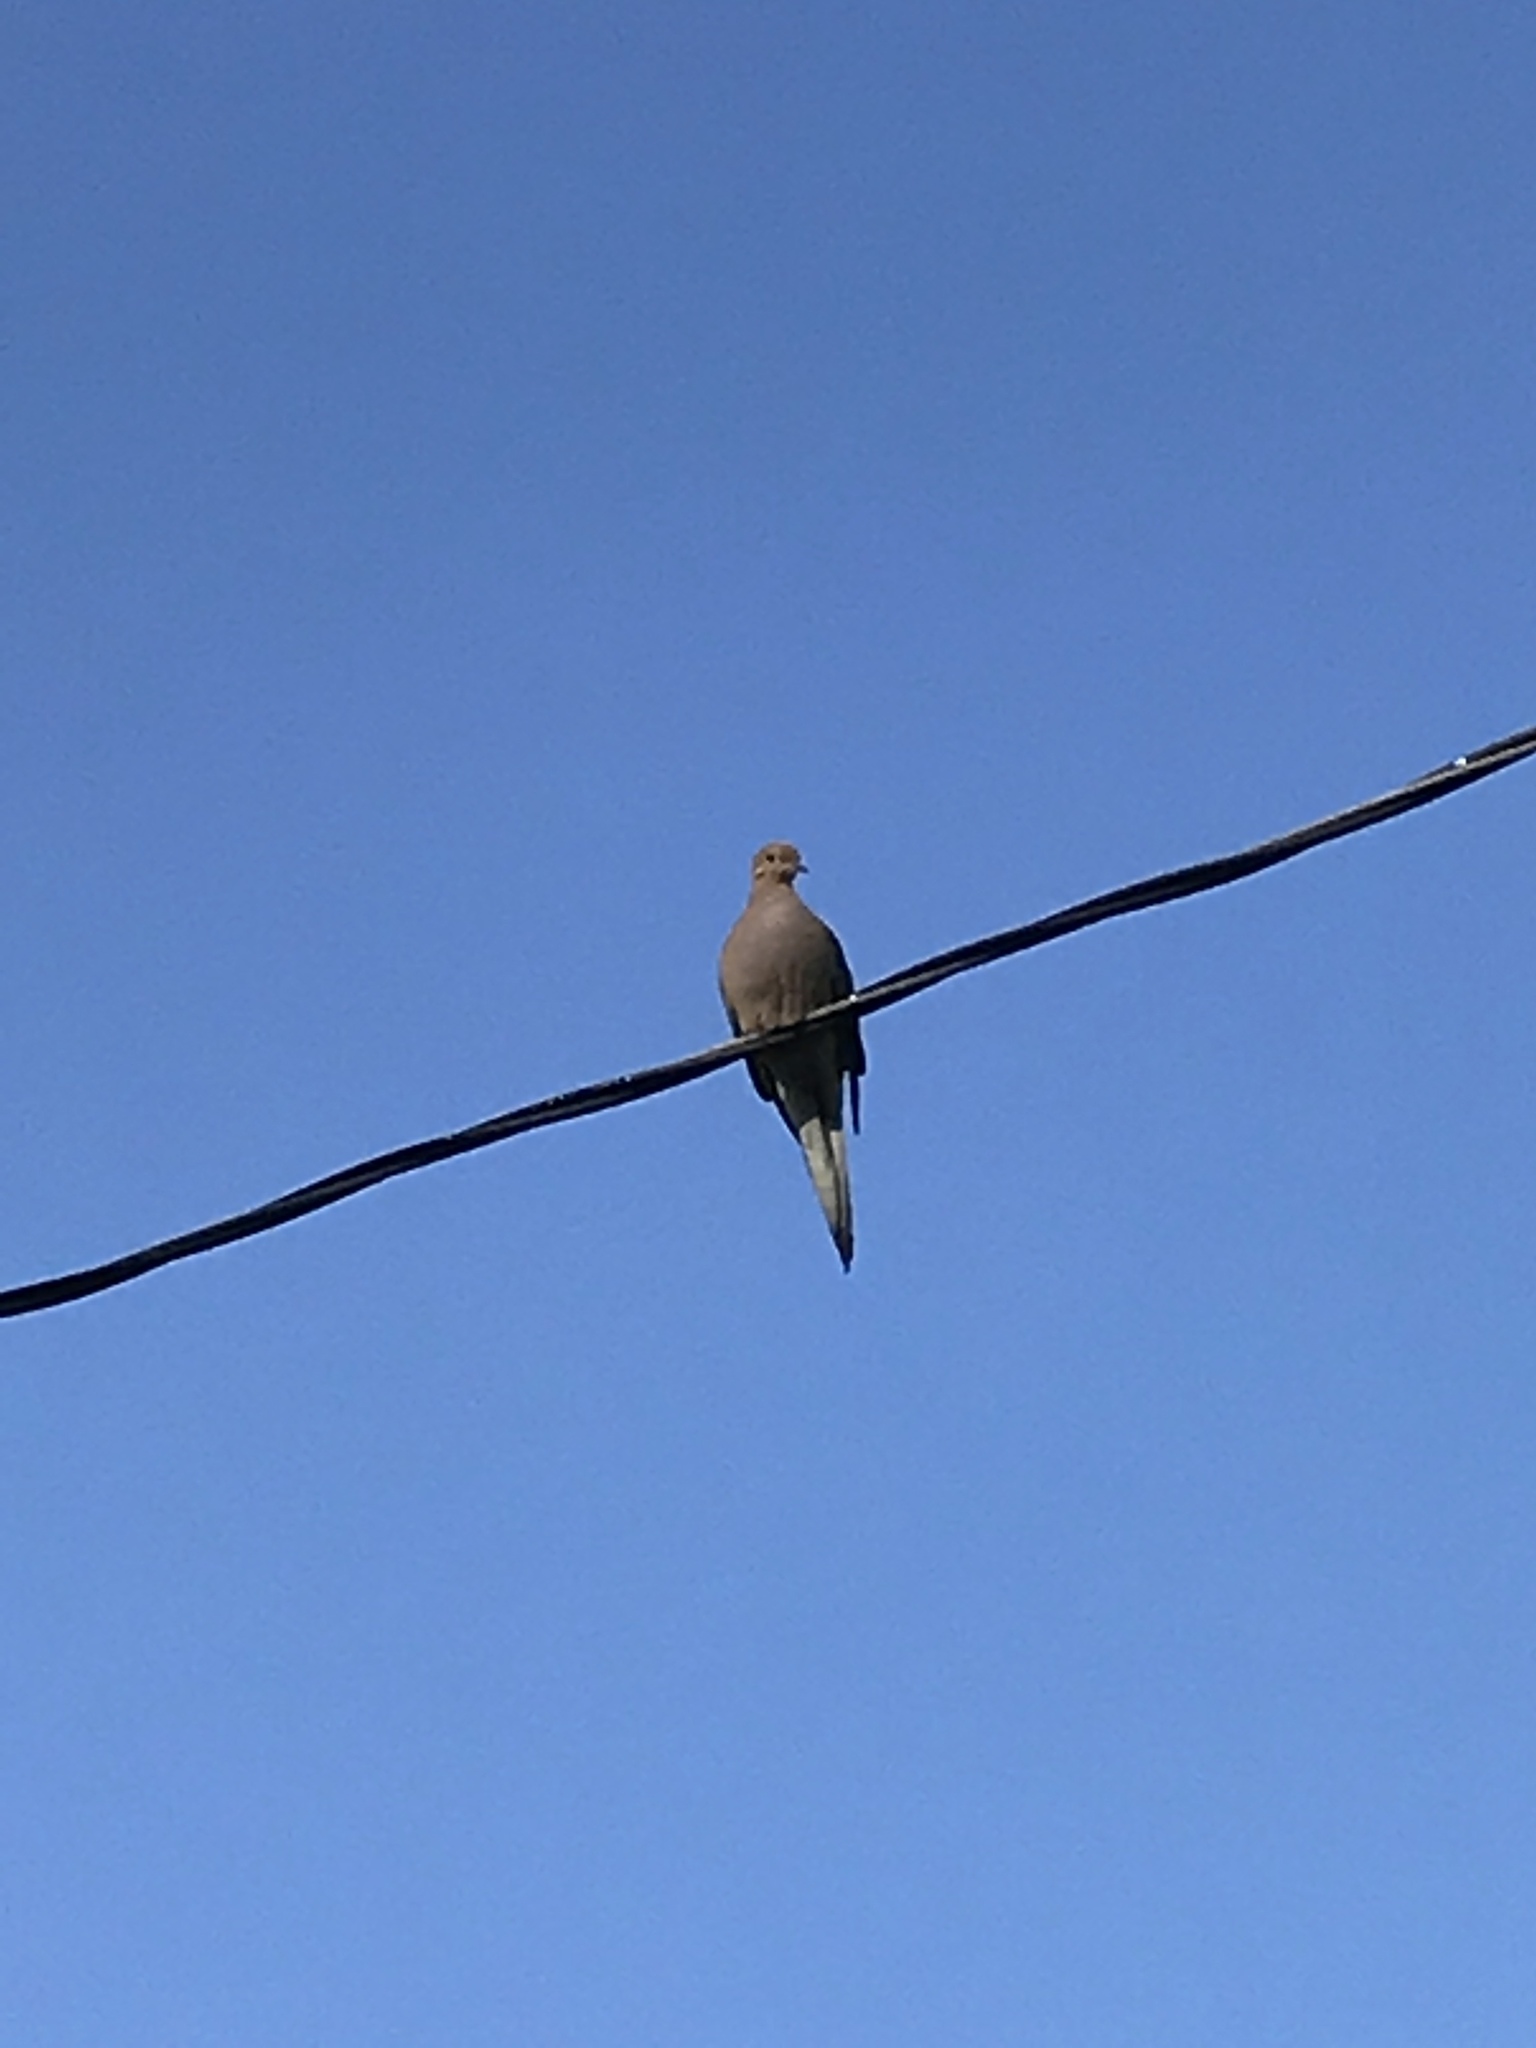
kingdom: Animalia
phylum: Chordata
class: Aves
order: Columbiformes
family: Columbidae
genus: Zenaida
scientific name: Zenaida macroura
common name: Mourning dove
